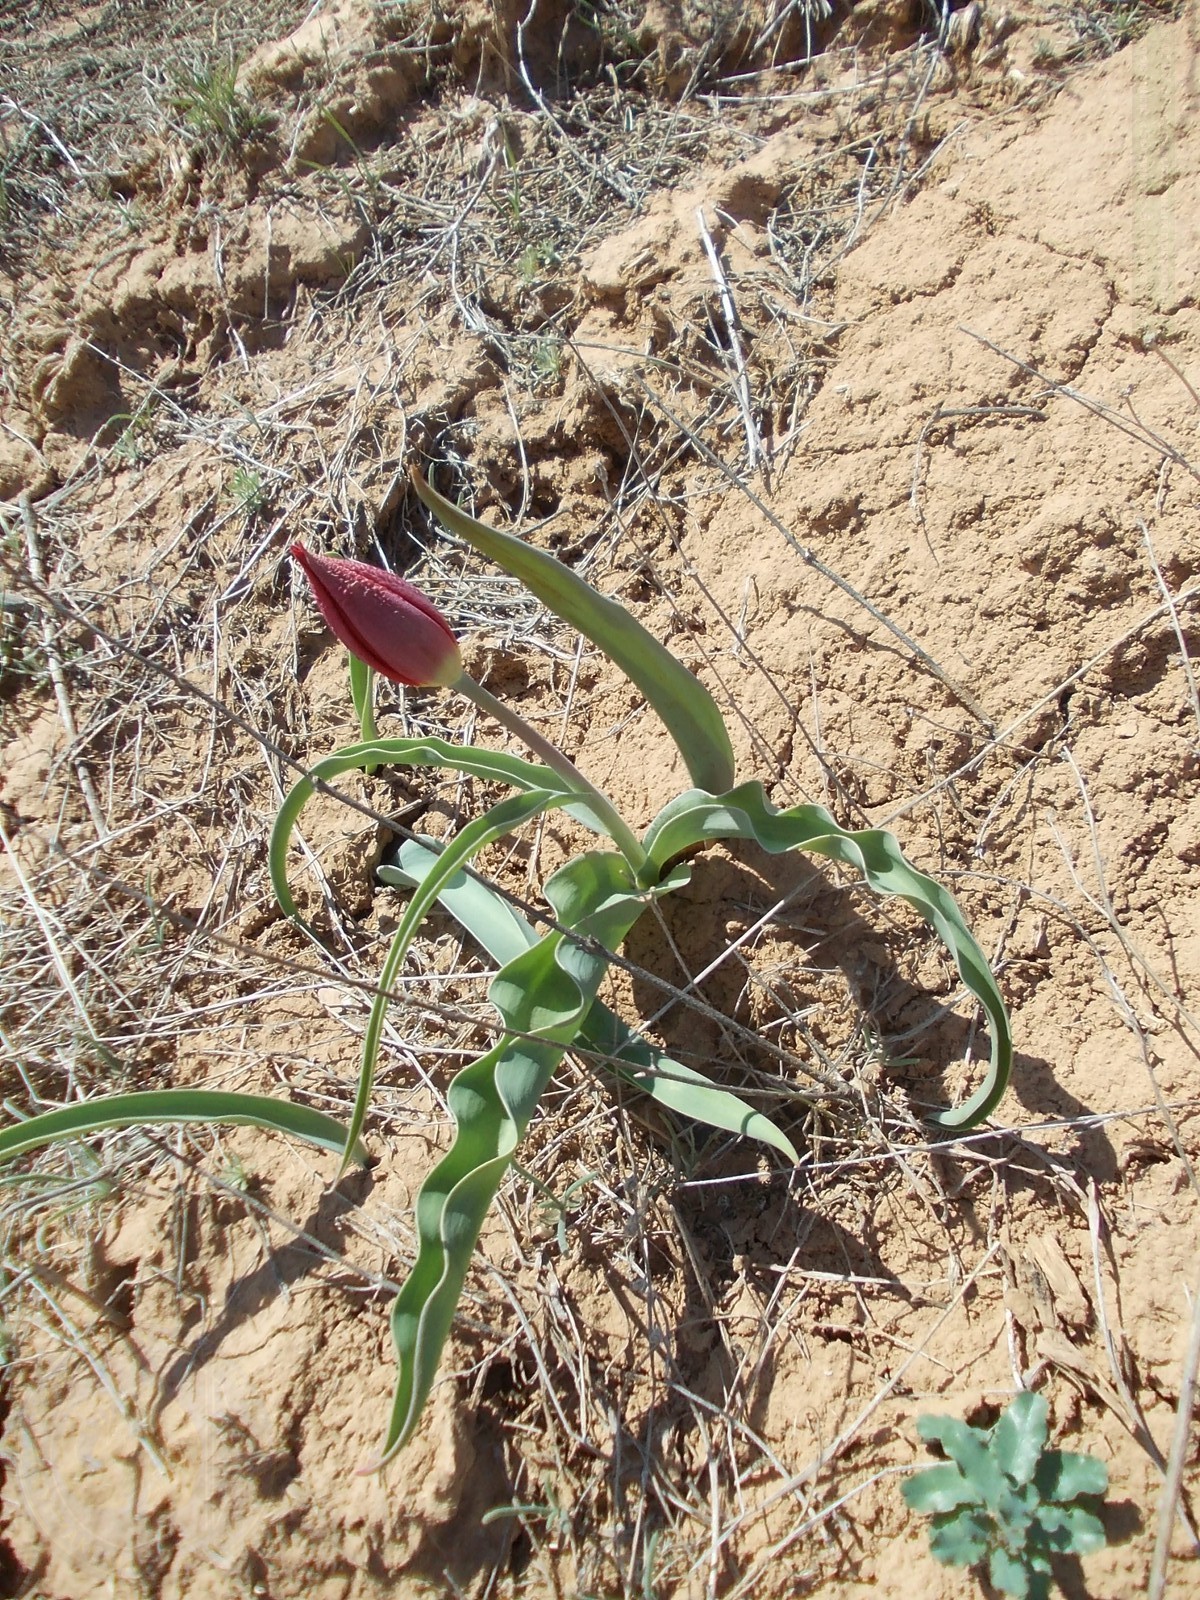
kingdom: Plantae
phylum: Tracheophyta
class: Liliopsida
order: Liliales
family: Liliaceae
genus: Tulipa
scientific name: Tulipa suaveolens
